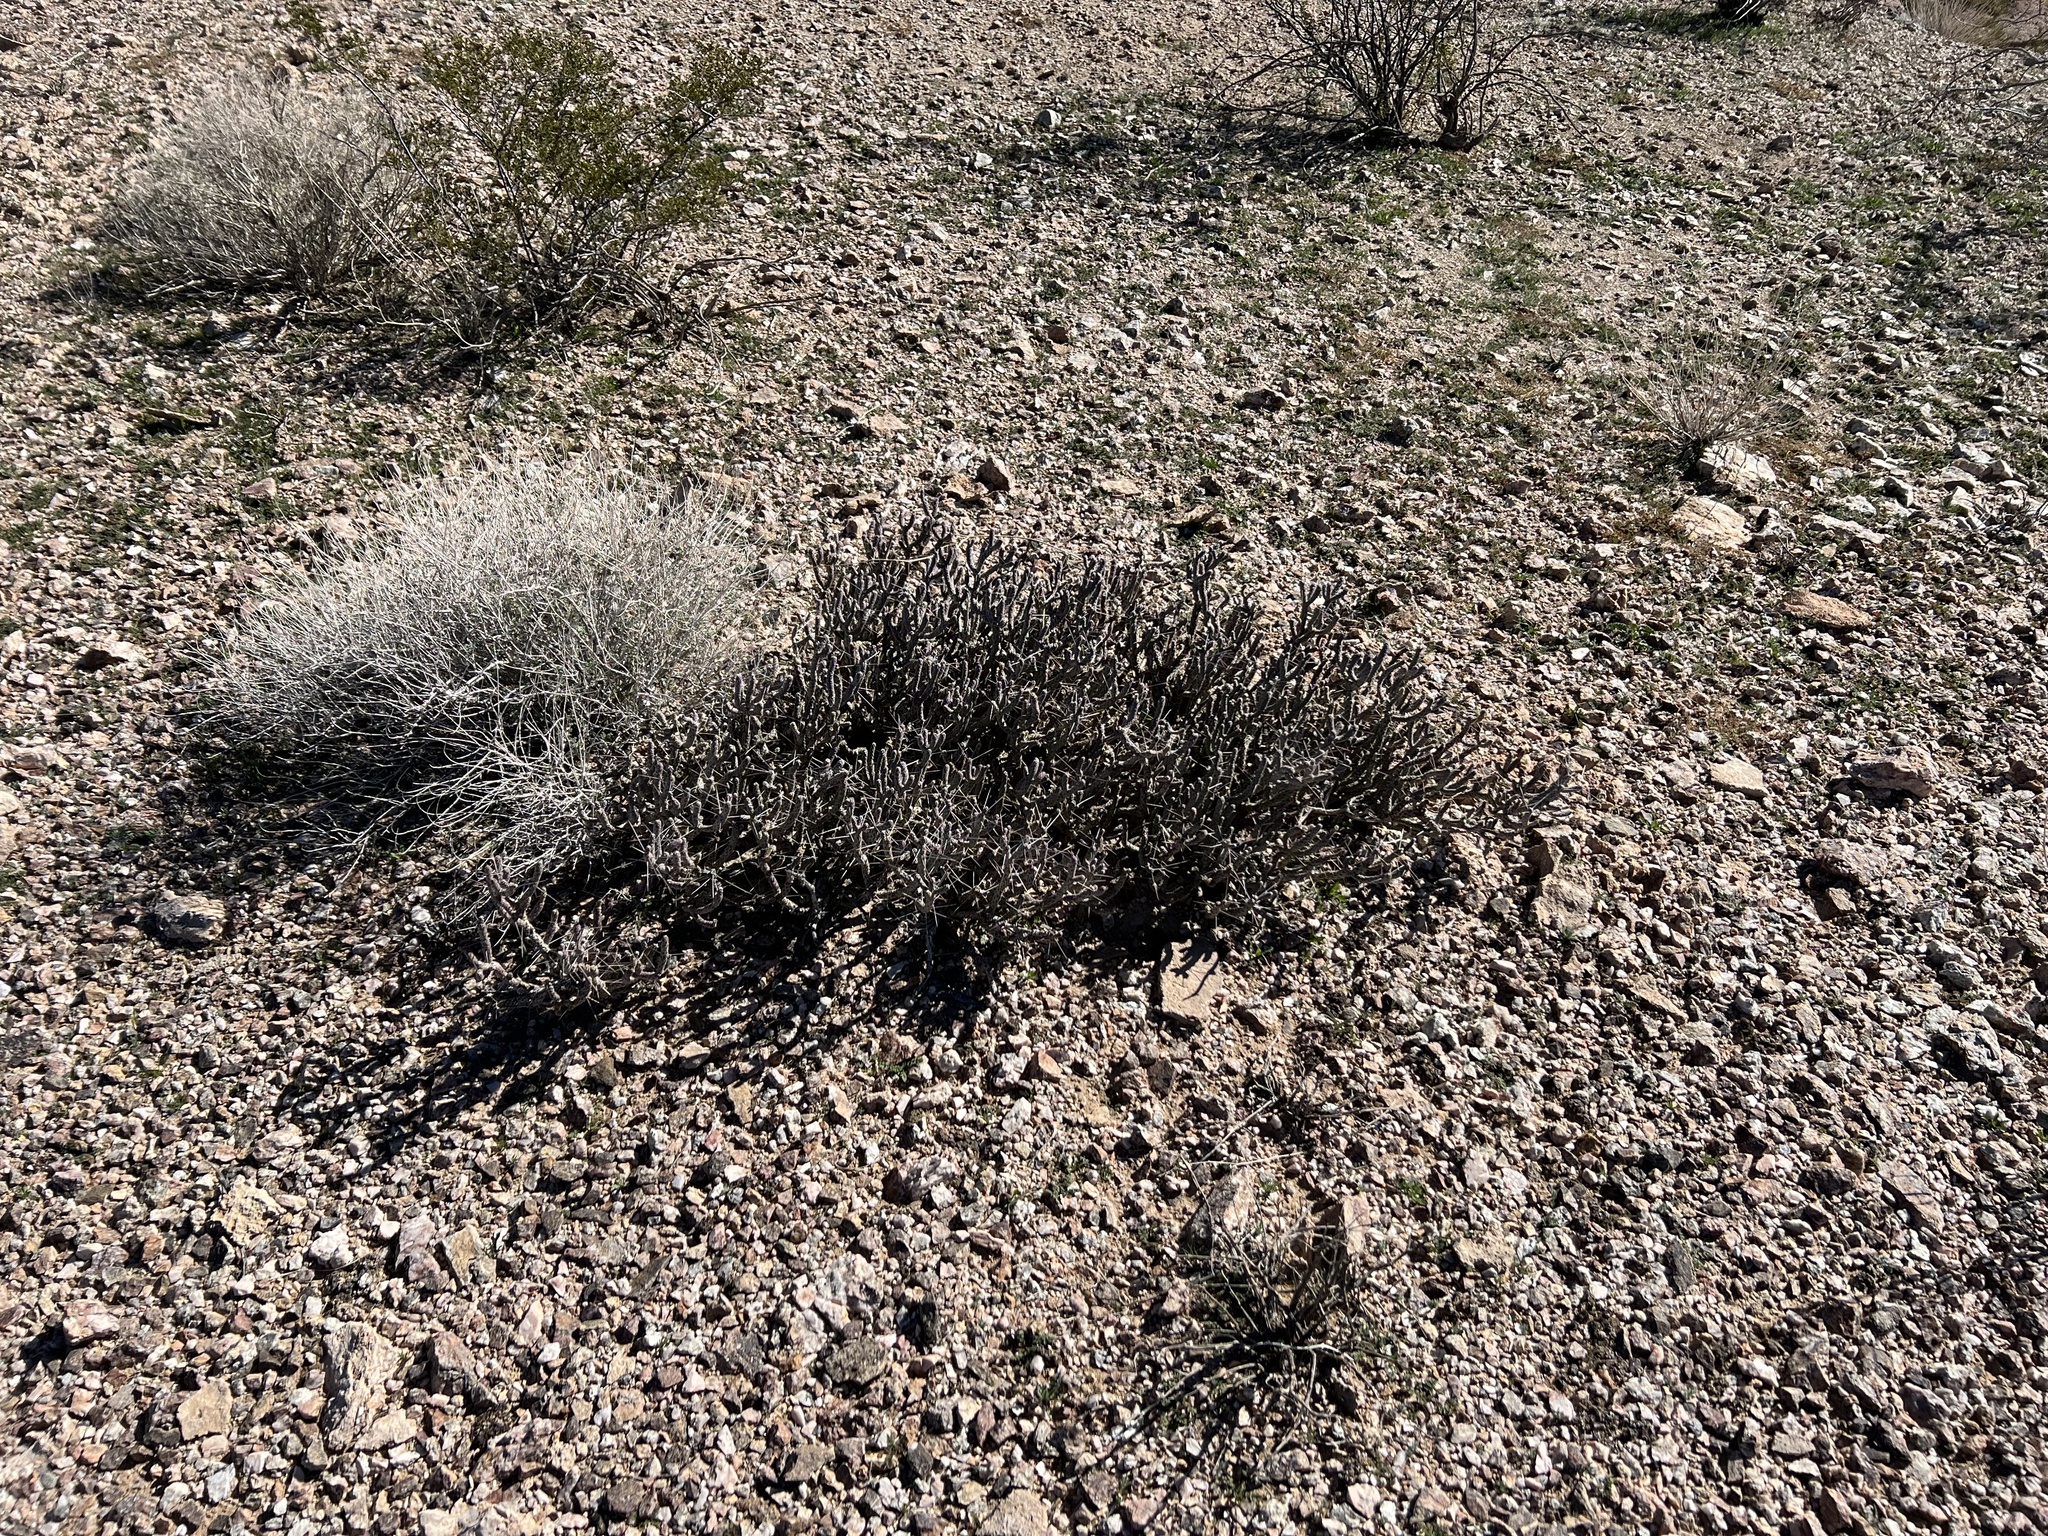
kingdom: Plantae
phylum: Tracheophyta
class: Magnoliopsida
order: Caryophyllales
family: Cactaceae
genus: Cylindropuntia
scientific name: Cylindropuntia ramosissima
